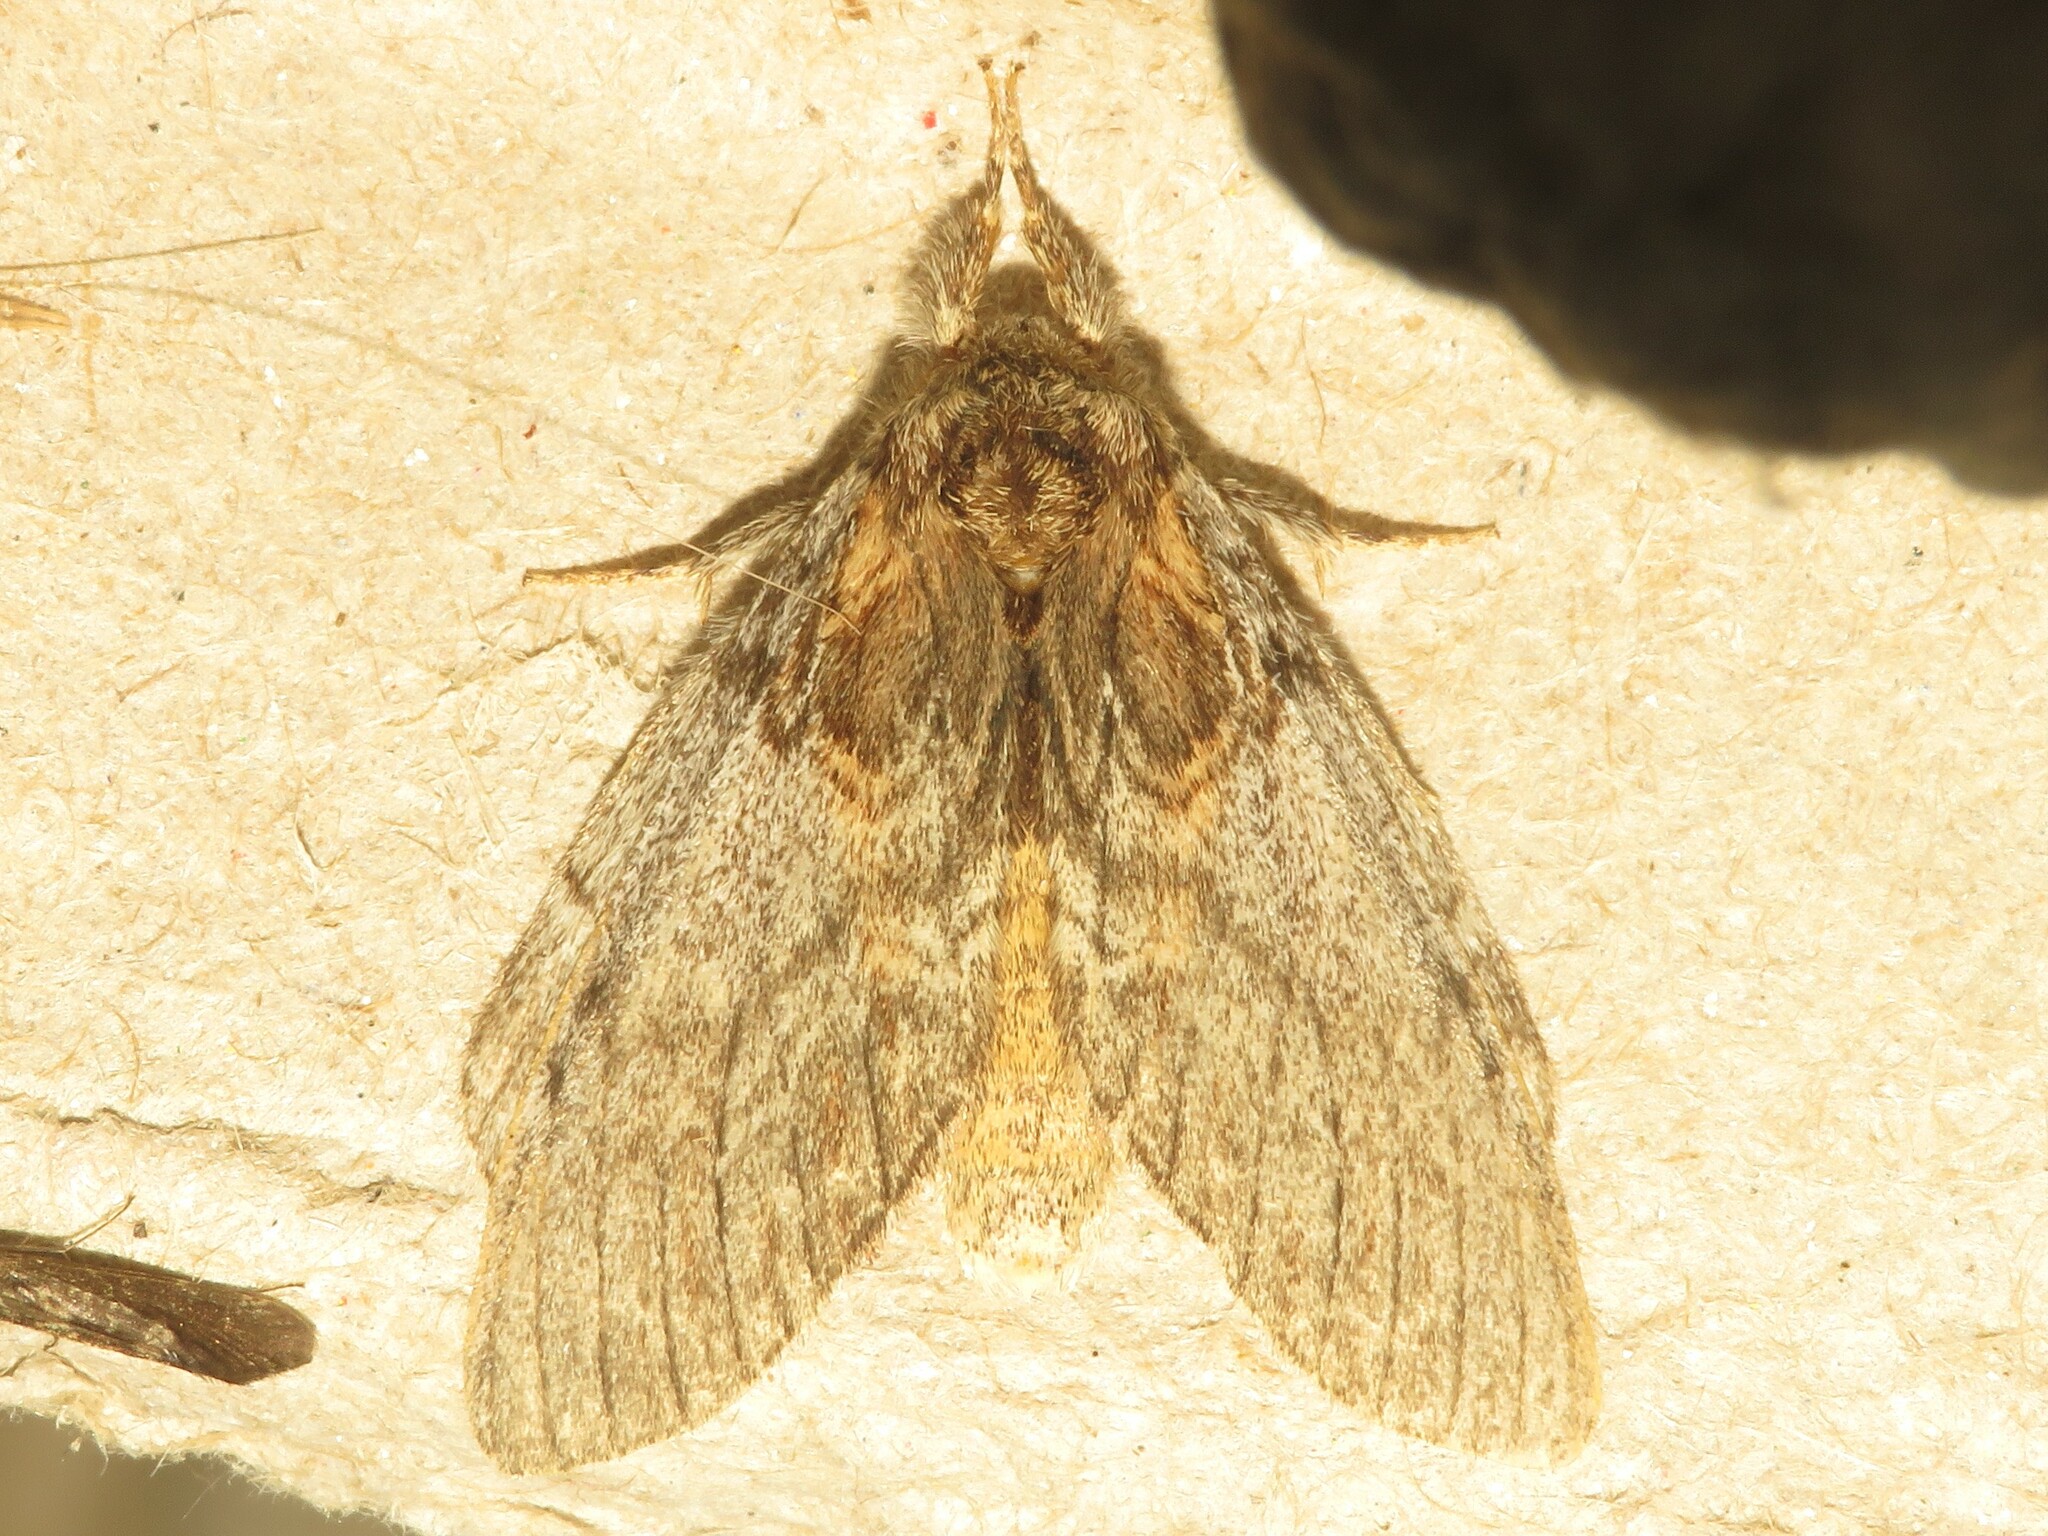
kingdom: Animalia
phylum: Arthropoda
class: Insecta
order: Lepidoptera
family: Notodontidae
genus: Peridea
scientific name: Peridea basitriens
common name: Oval-based prominent
